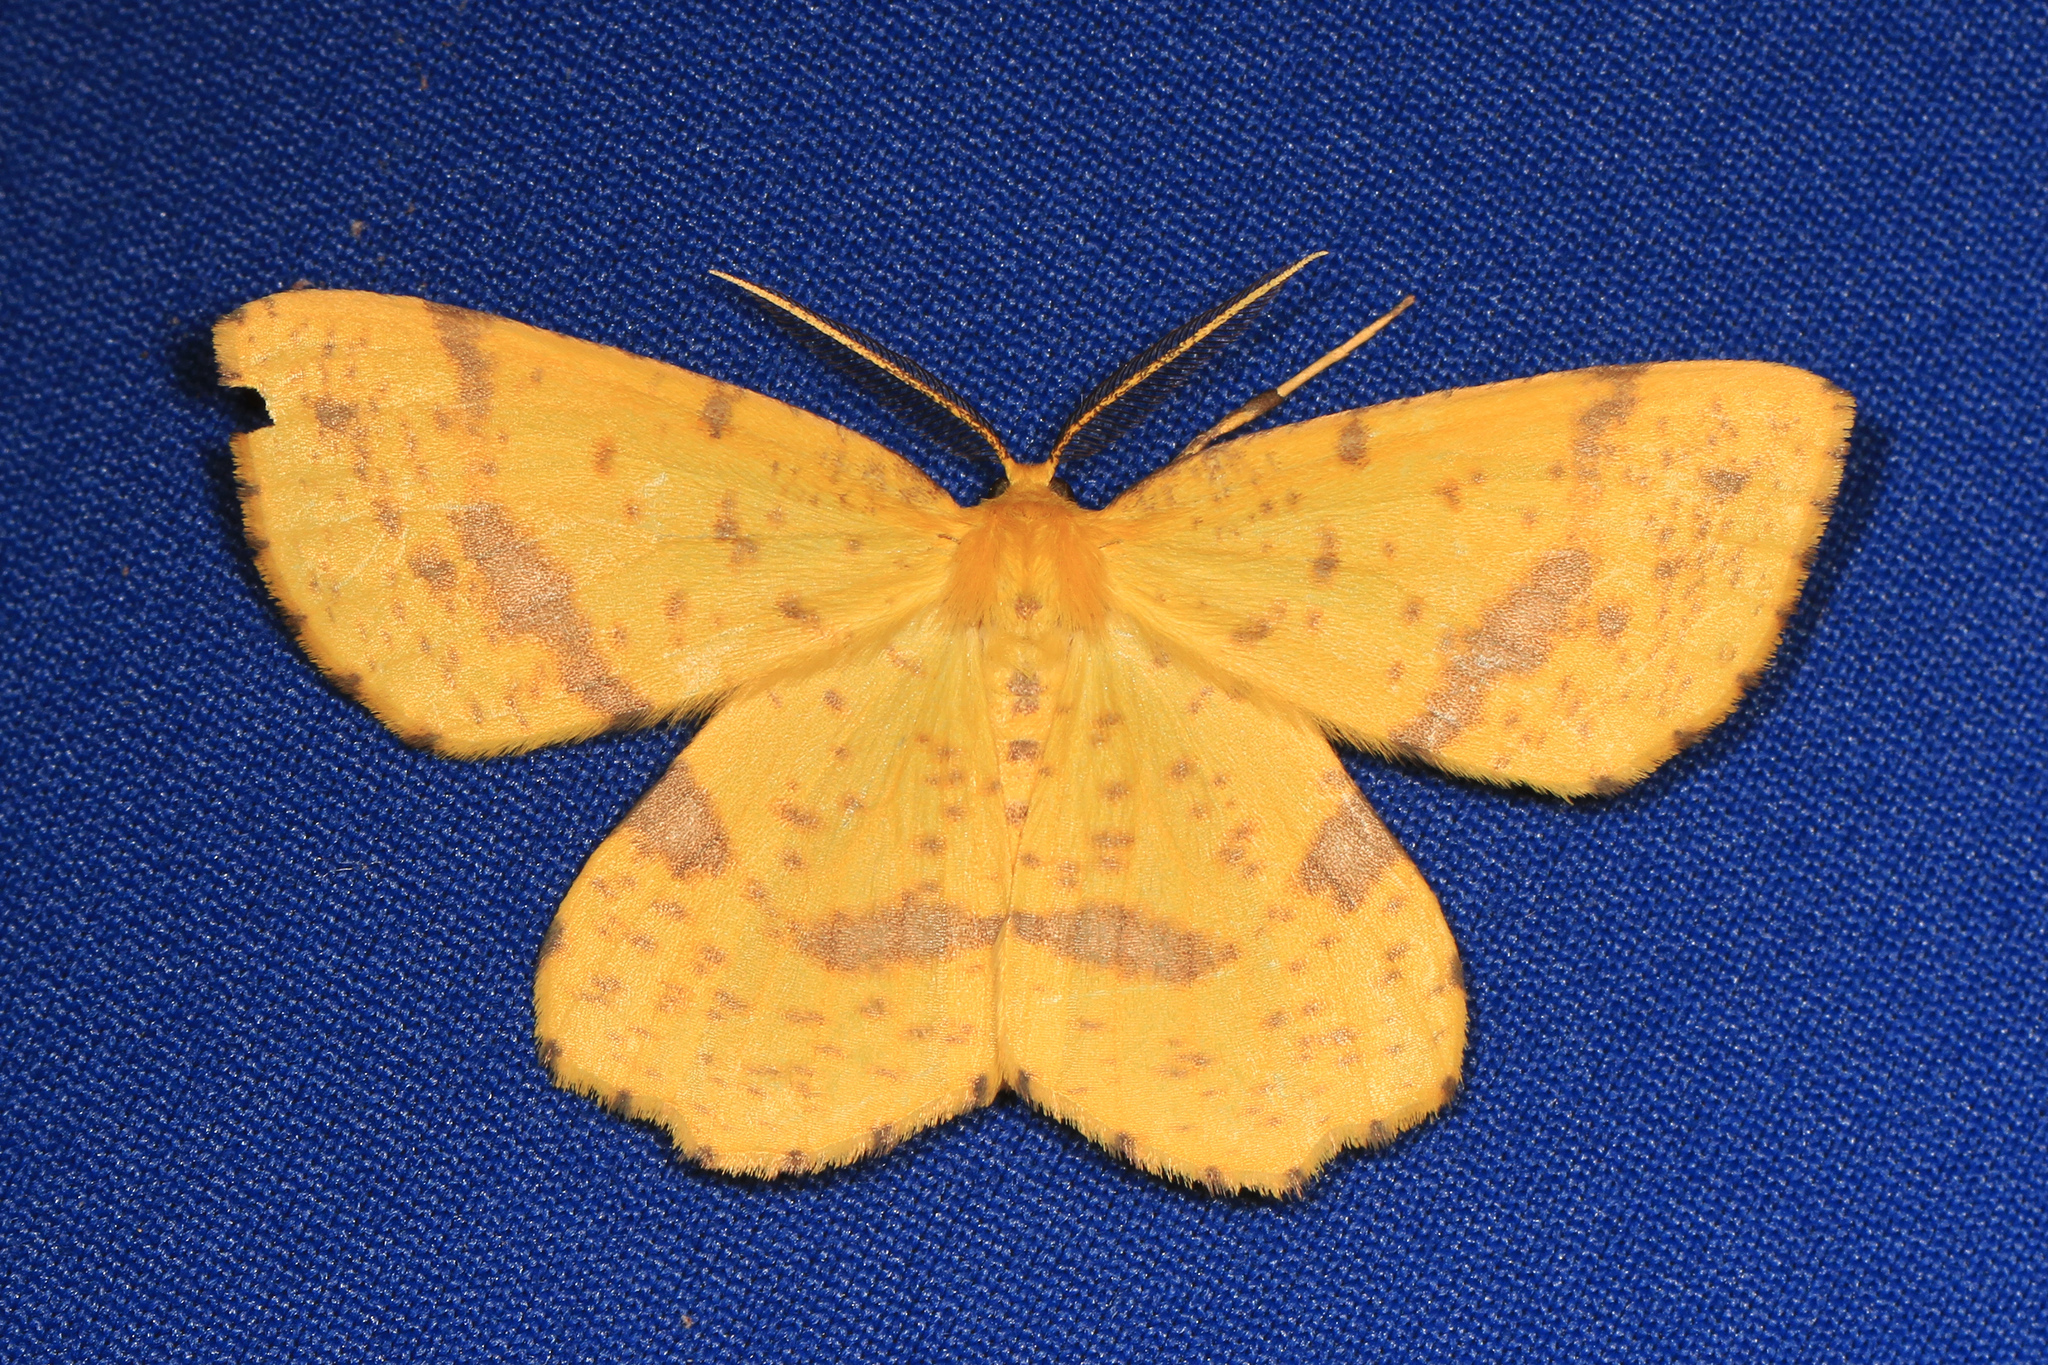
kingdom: Animalia
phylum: Arthropoda
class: Insecta
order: Lepidoptera
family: Geometridae
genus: Xanthotype
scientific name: Xanthotype
